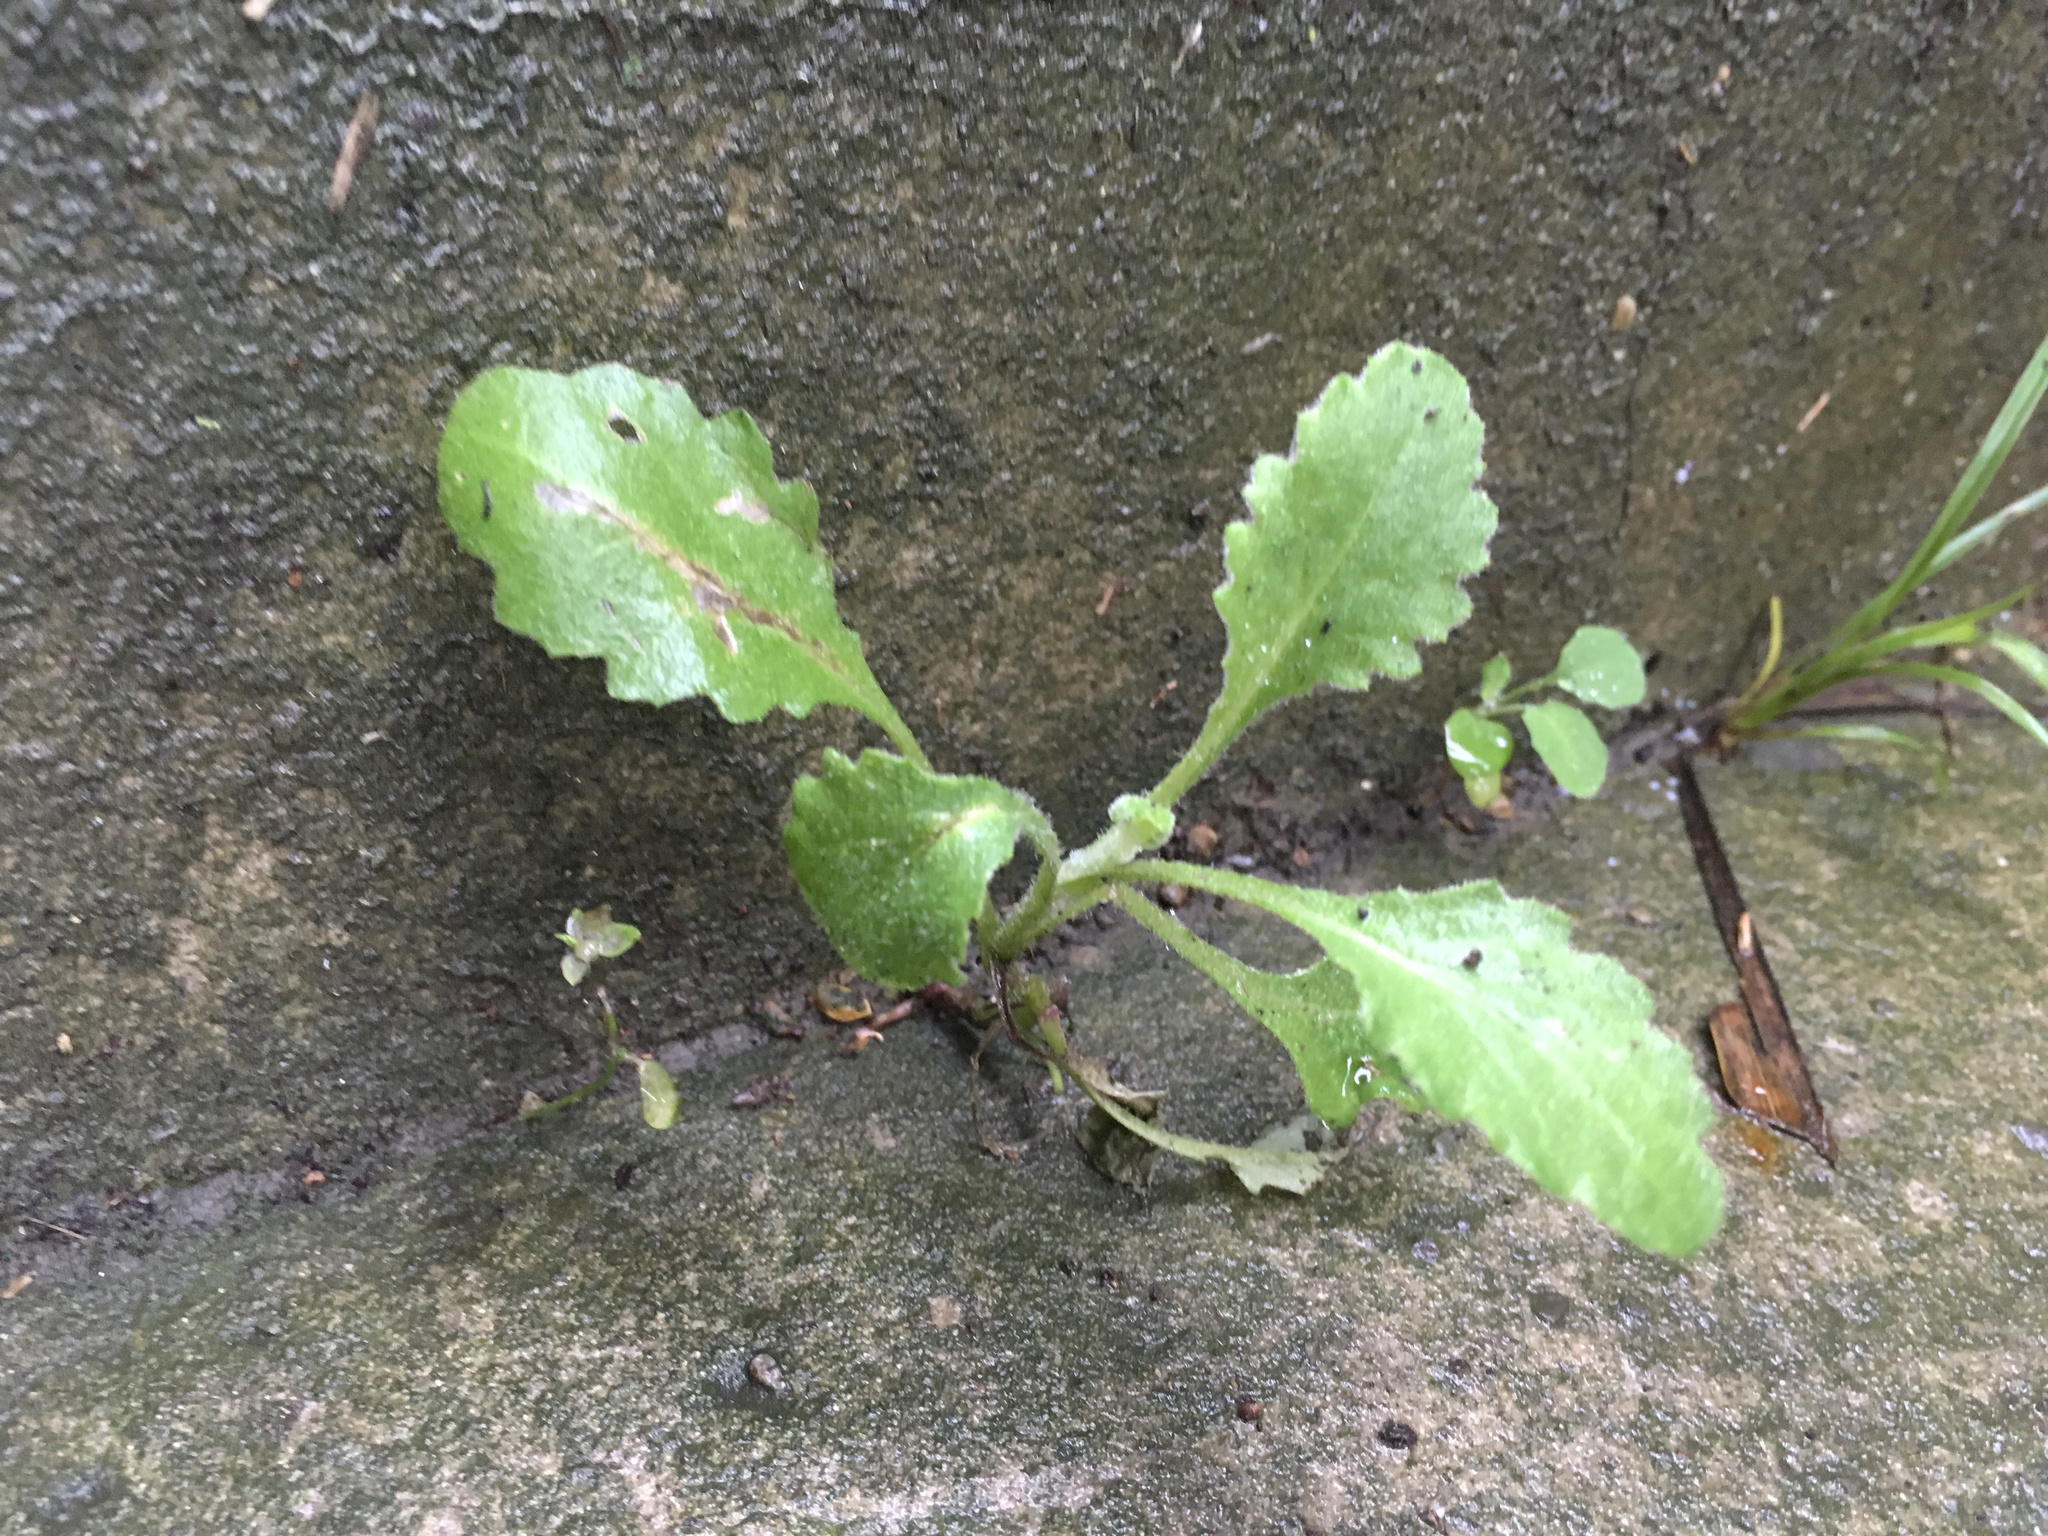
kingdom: Plantae
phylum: Tracheophyta
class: Magnoliopsida
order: Asterales
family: Asteraceae
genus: Senecio
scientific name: Senecio glomeratus
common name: Cutleaf burnweed
